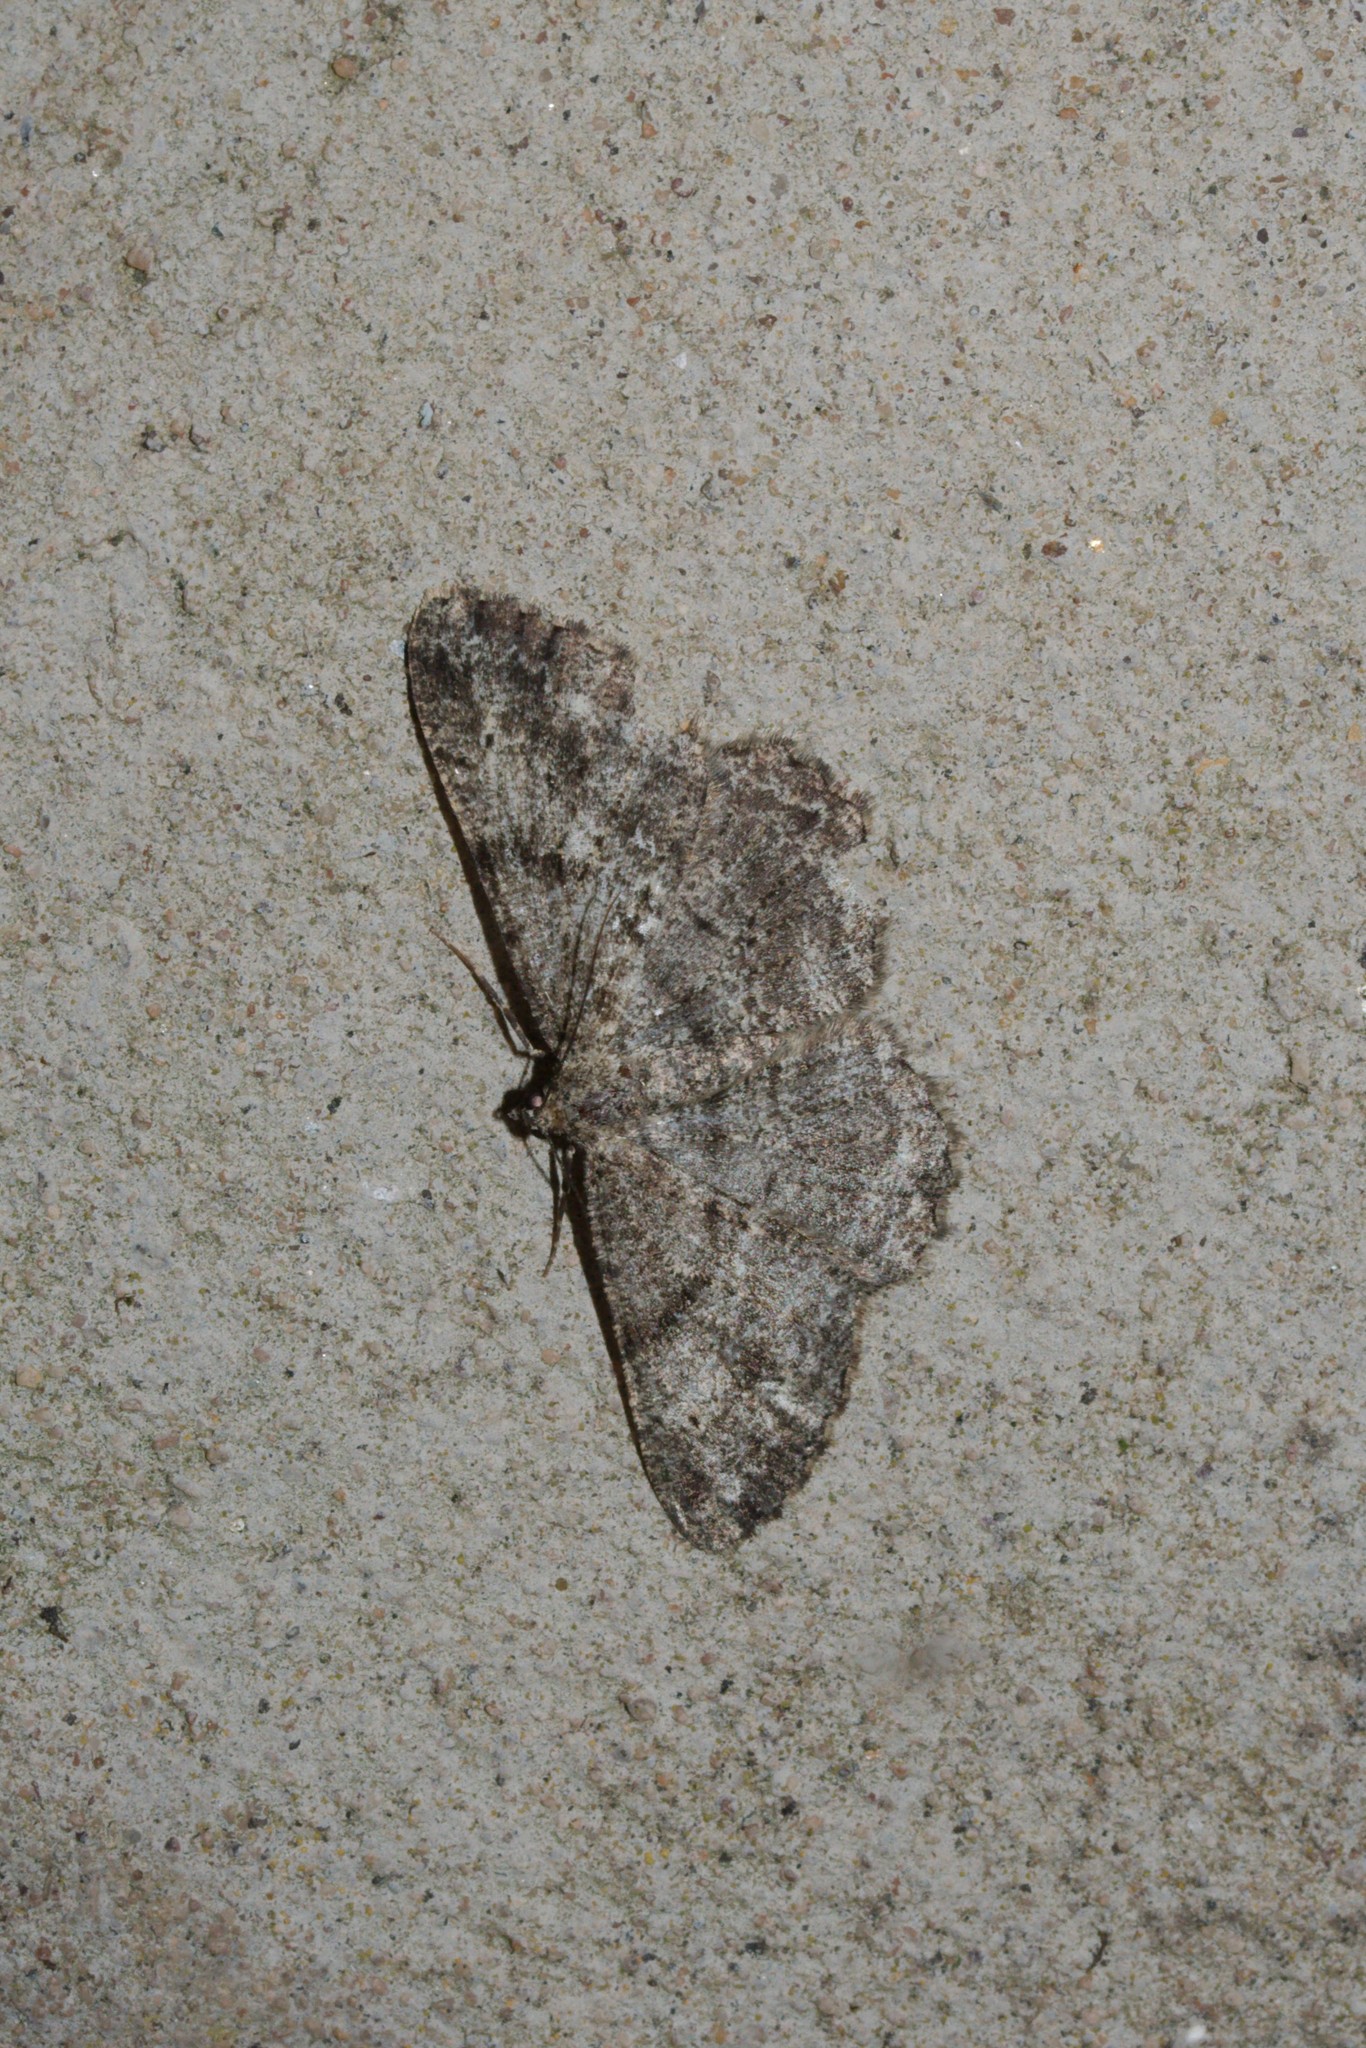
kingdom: Animalia
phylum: Arthropoda
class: Insecta
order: Lepidoptera
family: Geometridae
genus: Peribatodes
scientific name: Peribatodes rhomboidaria
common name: Willow beauty
